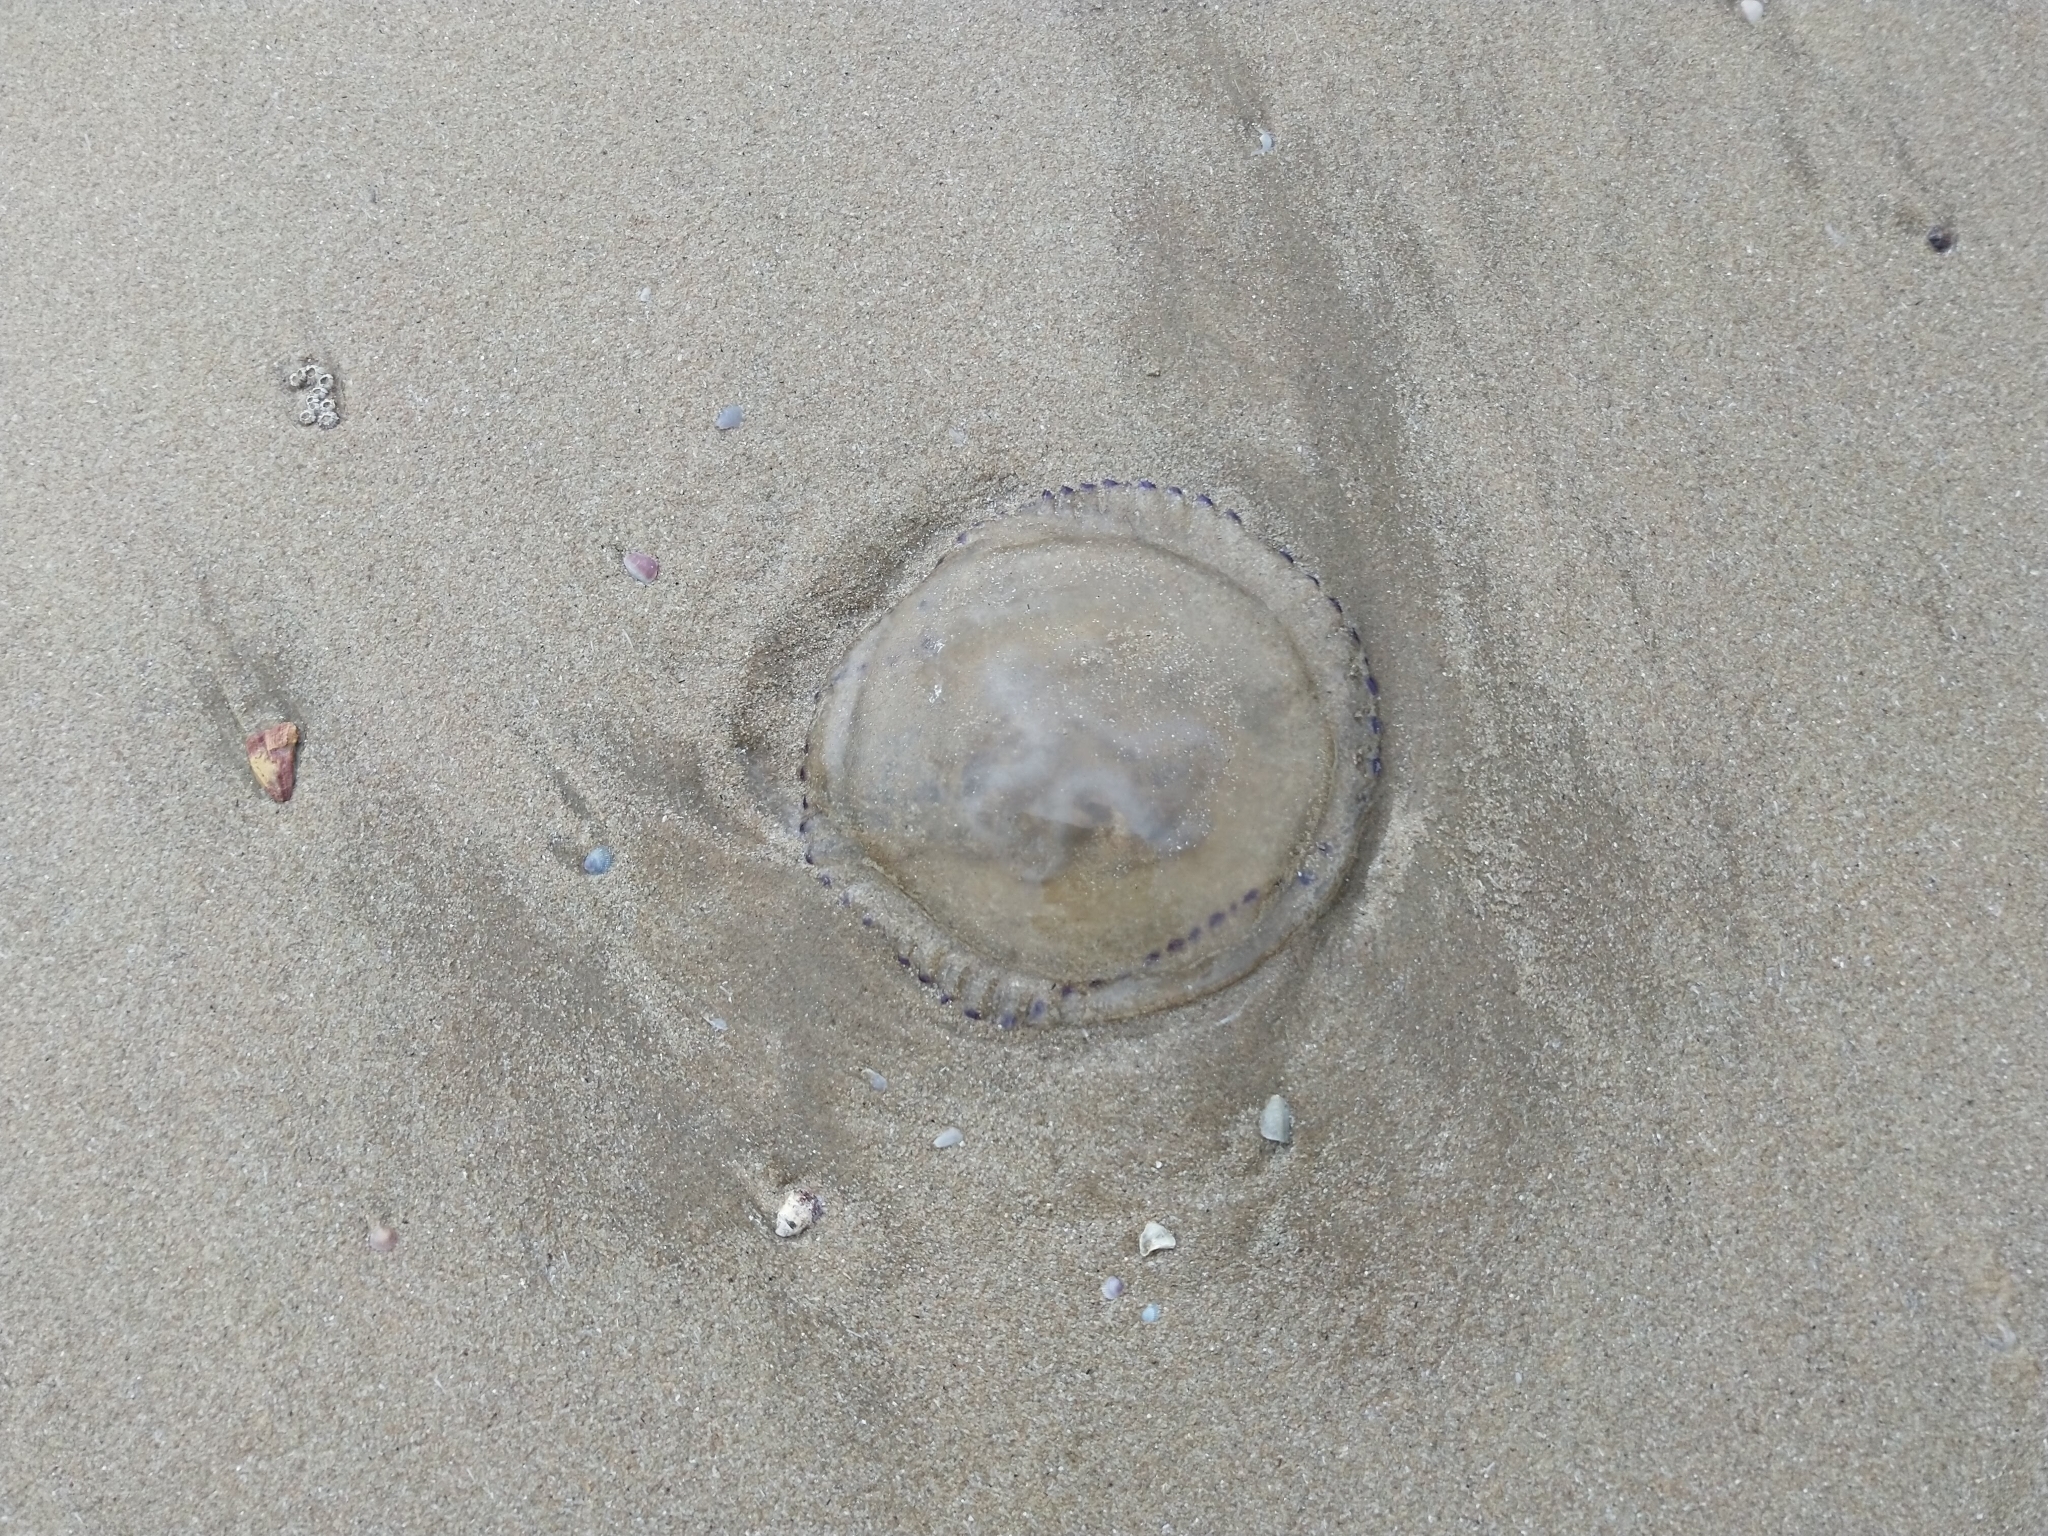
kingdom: Animalia
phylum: Cnidaria
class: Scyphozoa
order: Rhizostomeae
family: Catostylidae
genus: Crambionella
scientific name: Crambionella stuhlmanni
